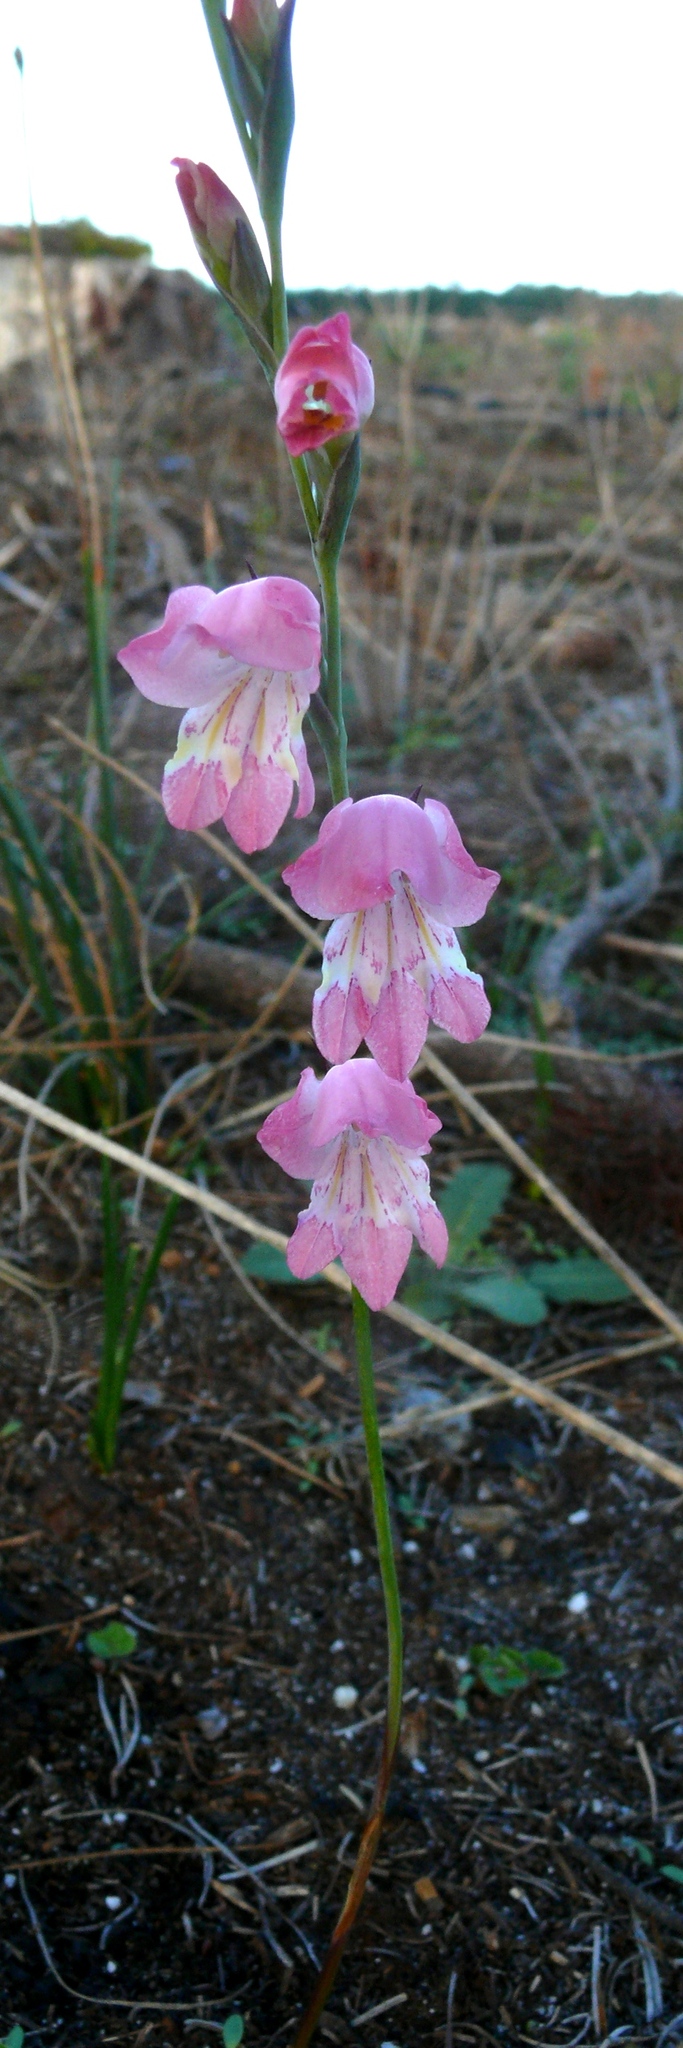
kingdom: Plantae
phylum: Tracheophyta
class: Liliopsida
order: Asparagales
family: Iridaceae
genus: Gladiolus
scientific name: Gladiolus brevifolius
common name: March pypie
